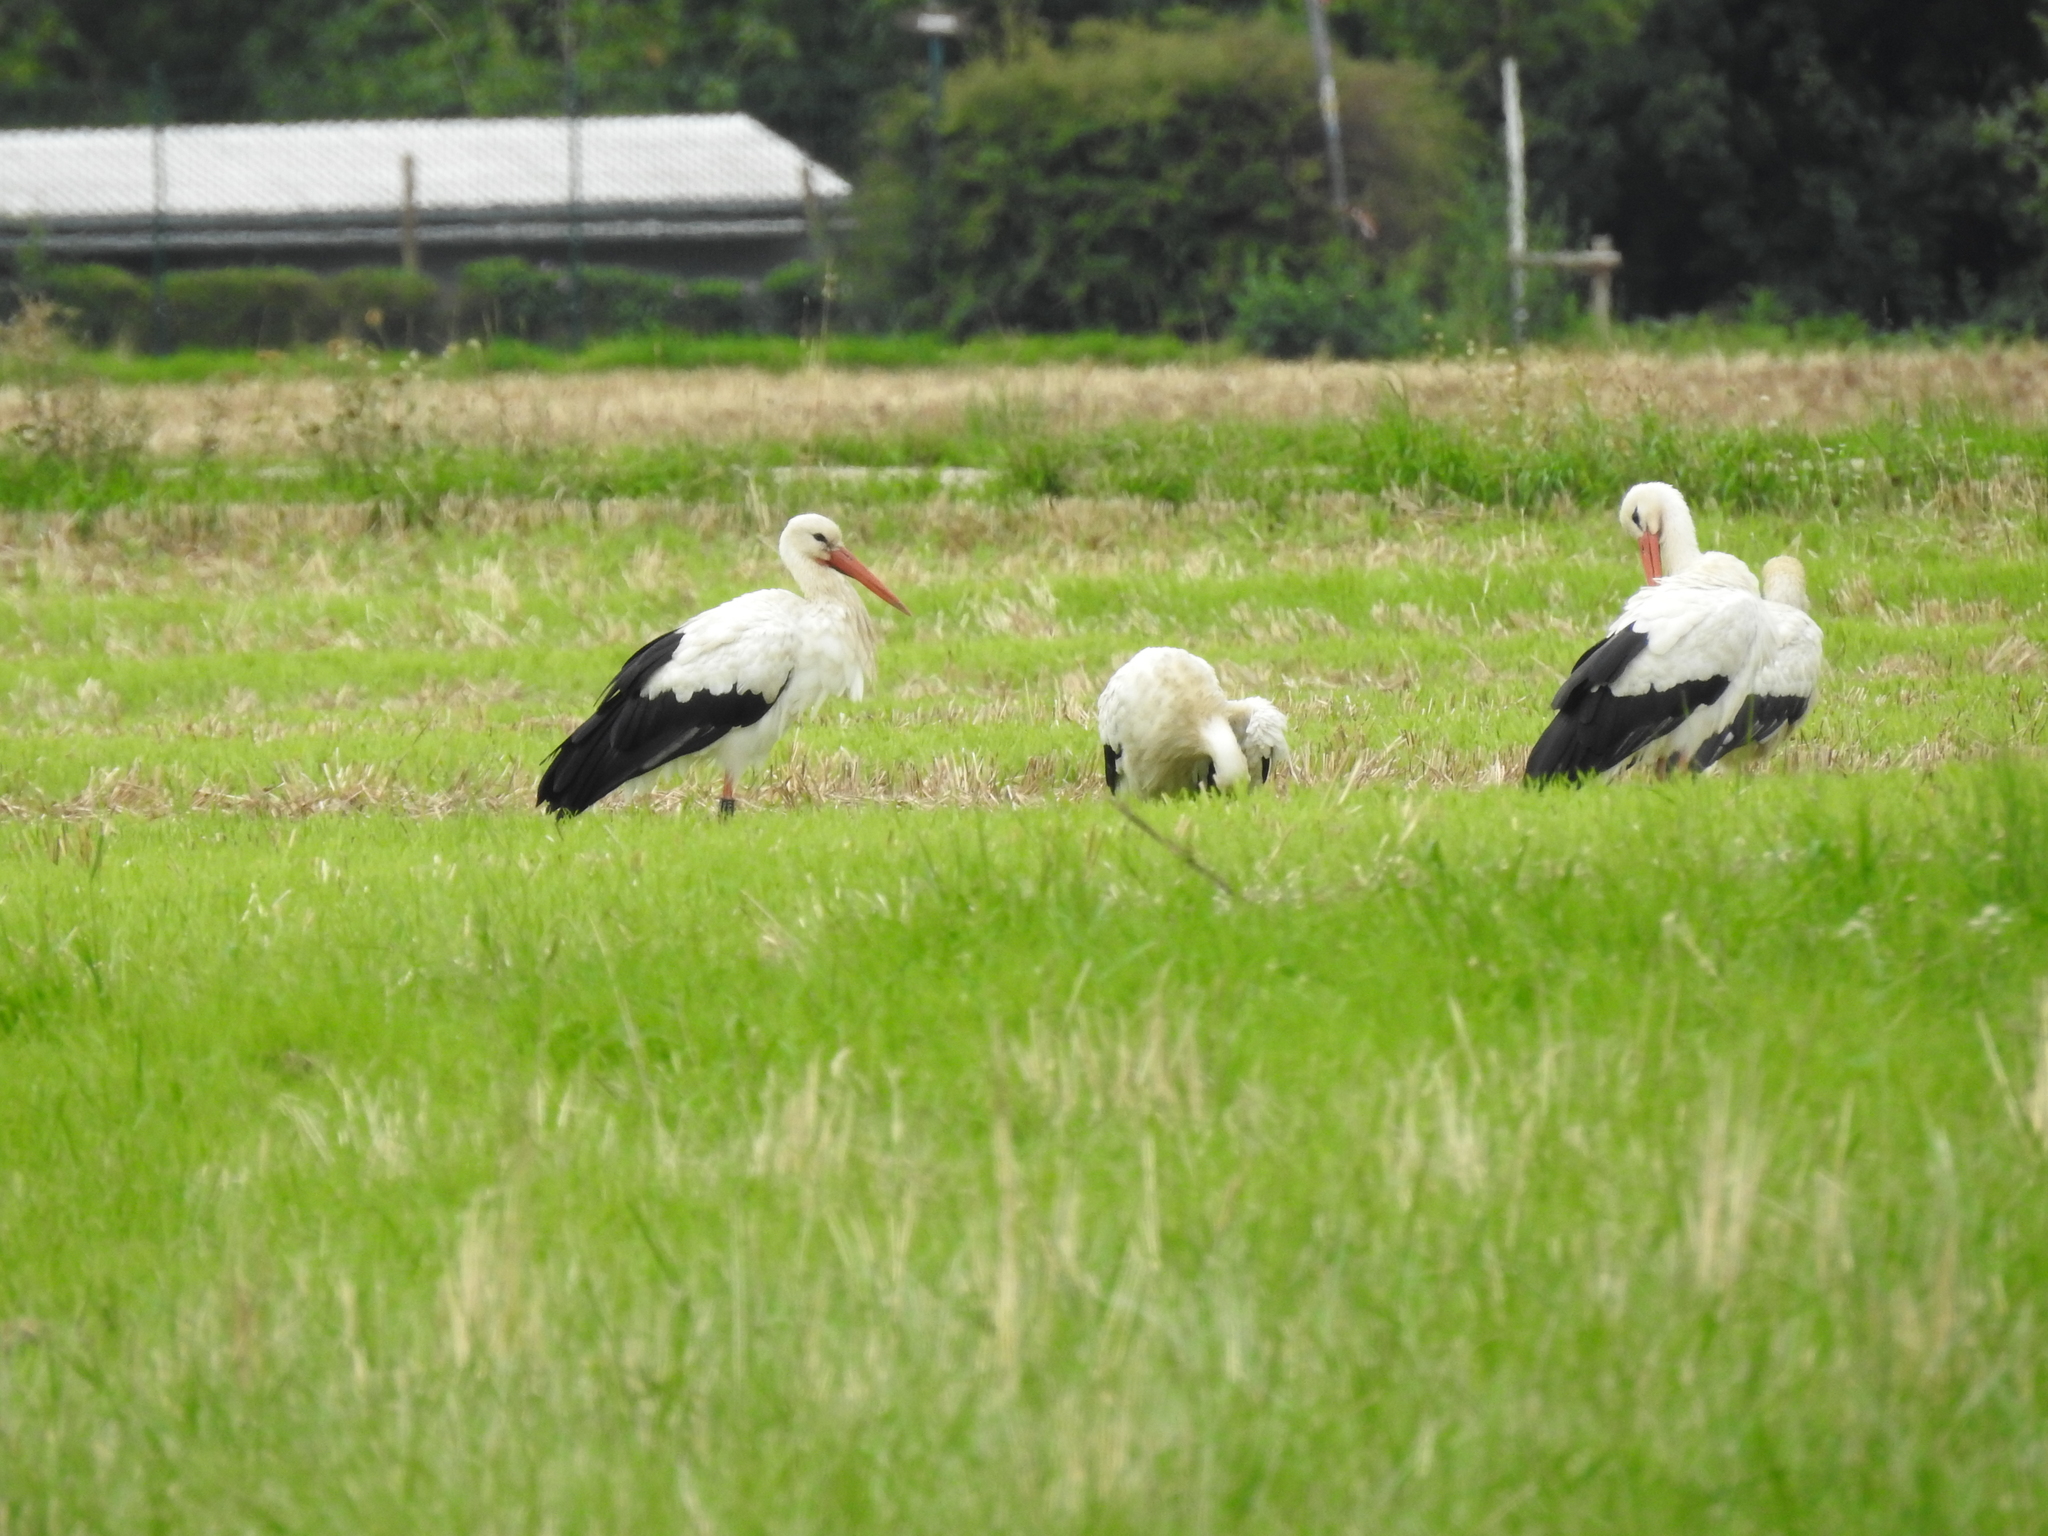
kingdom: Animalia
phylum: Chordata
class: Aves
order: Ciconiiformes
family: Ciconiidae
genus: Ciconia
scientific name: Ciconia ciconia
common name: White stork
